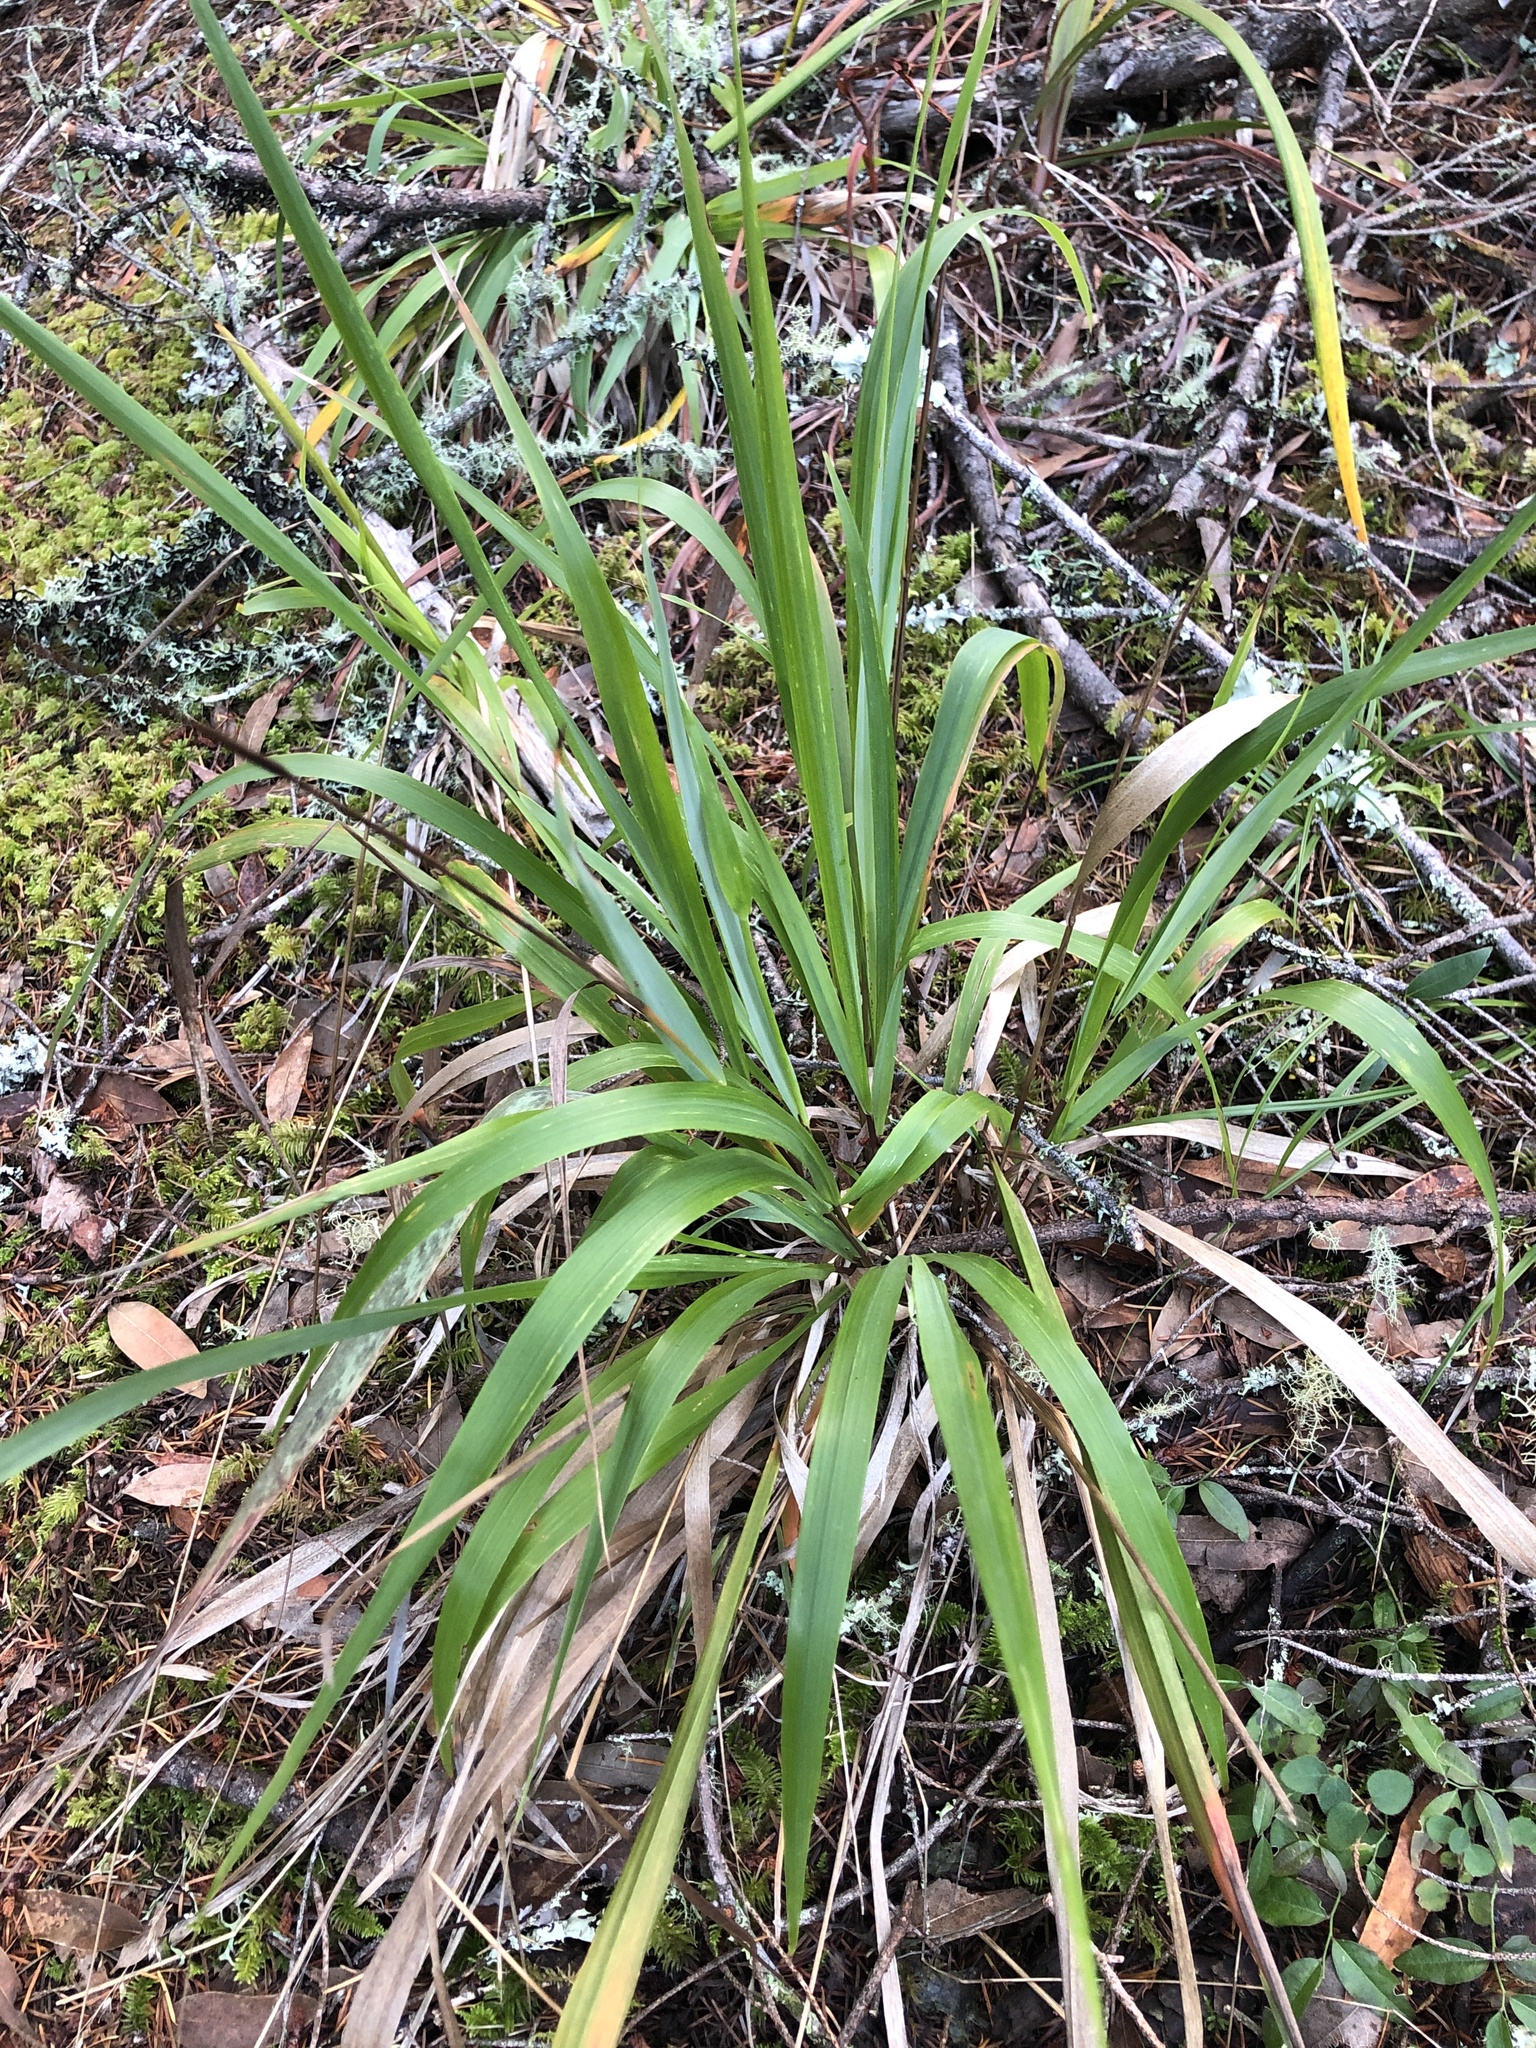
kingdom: Plantae
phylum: Tracheophyta
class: Liliopsida
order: Poales
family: Poaceae
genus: Anthoxanthum
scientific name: Anthoxanthum occidentale
